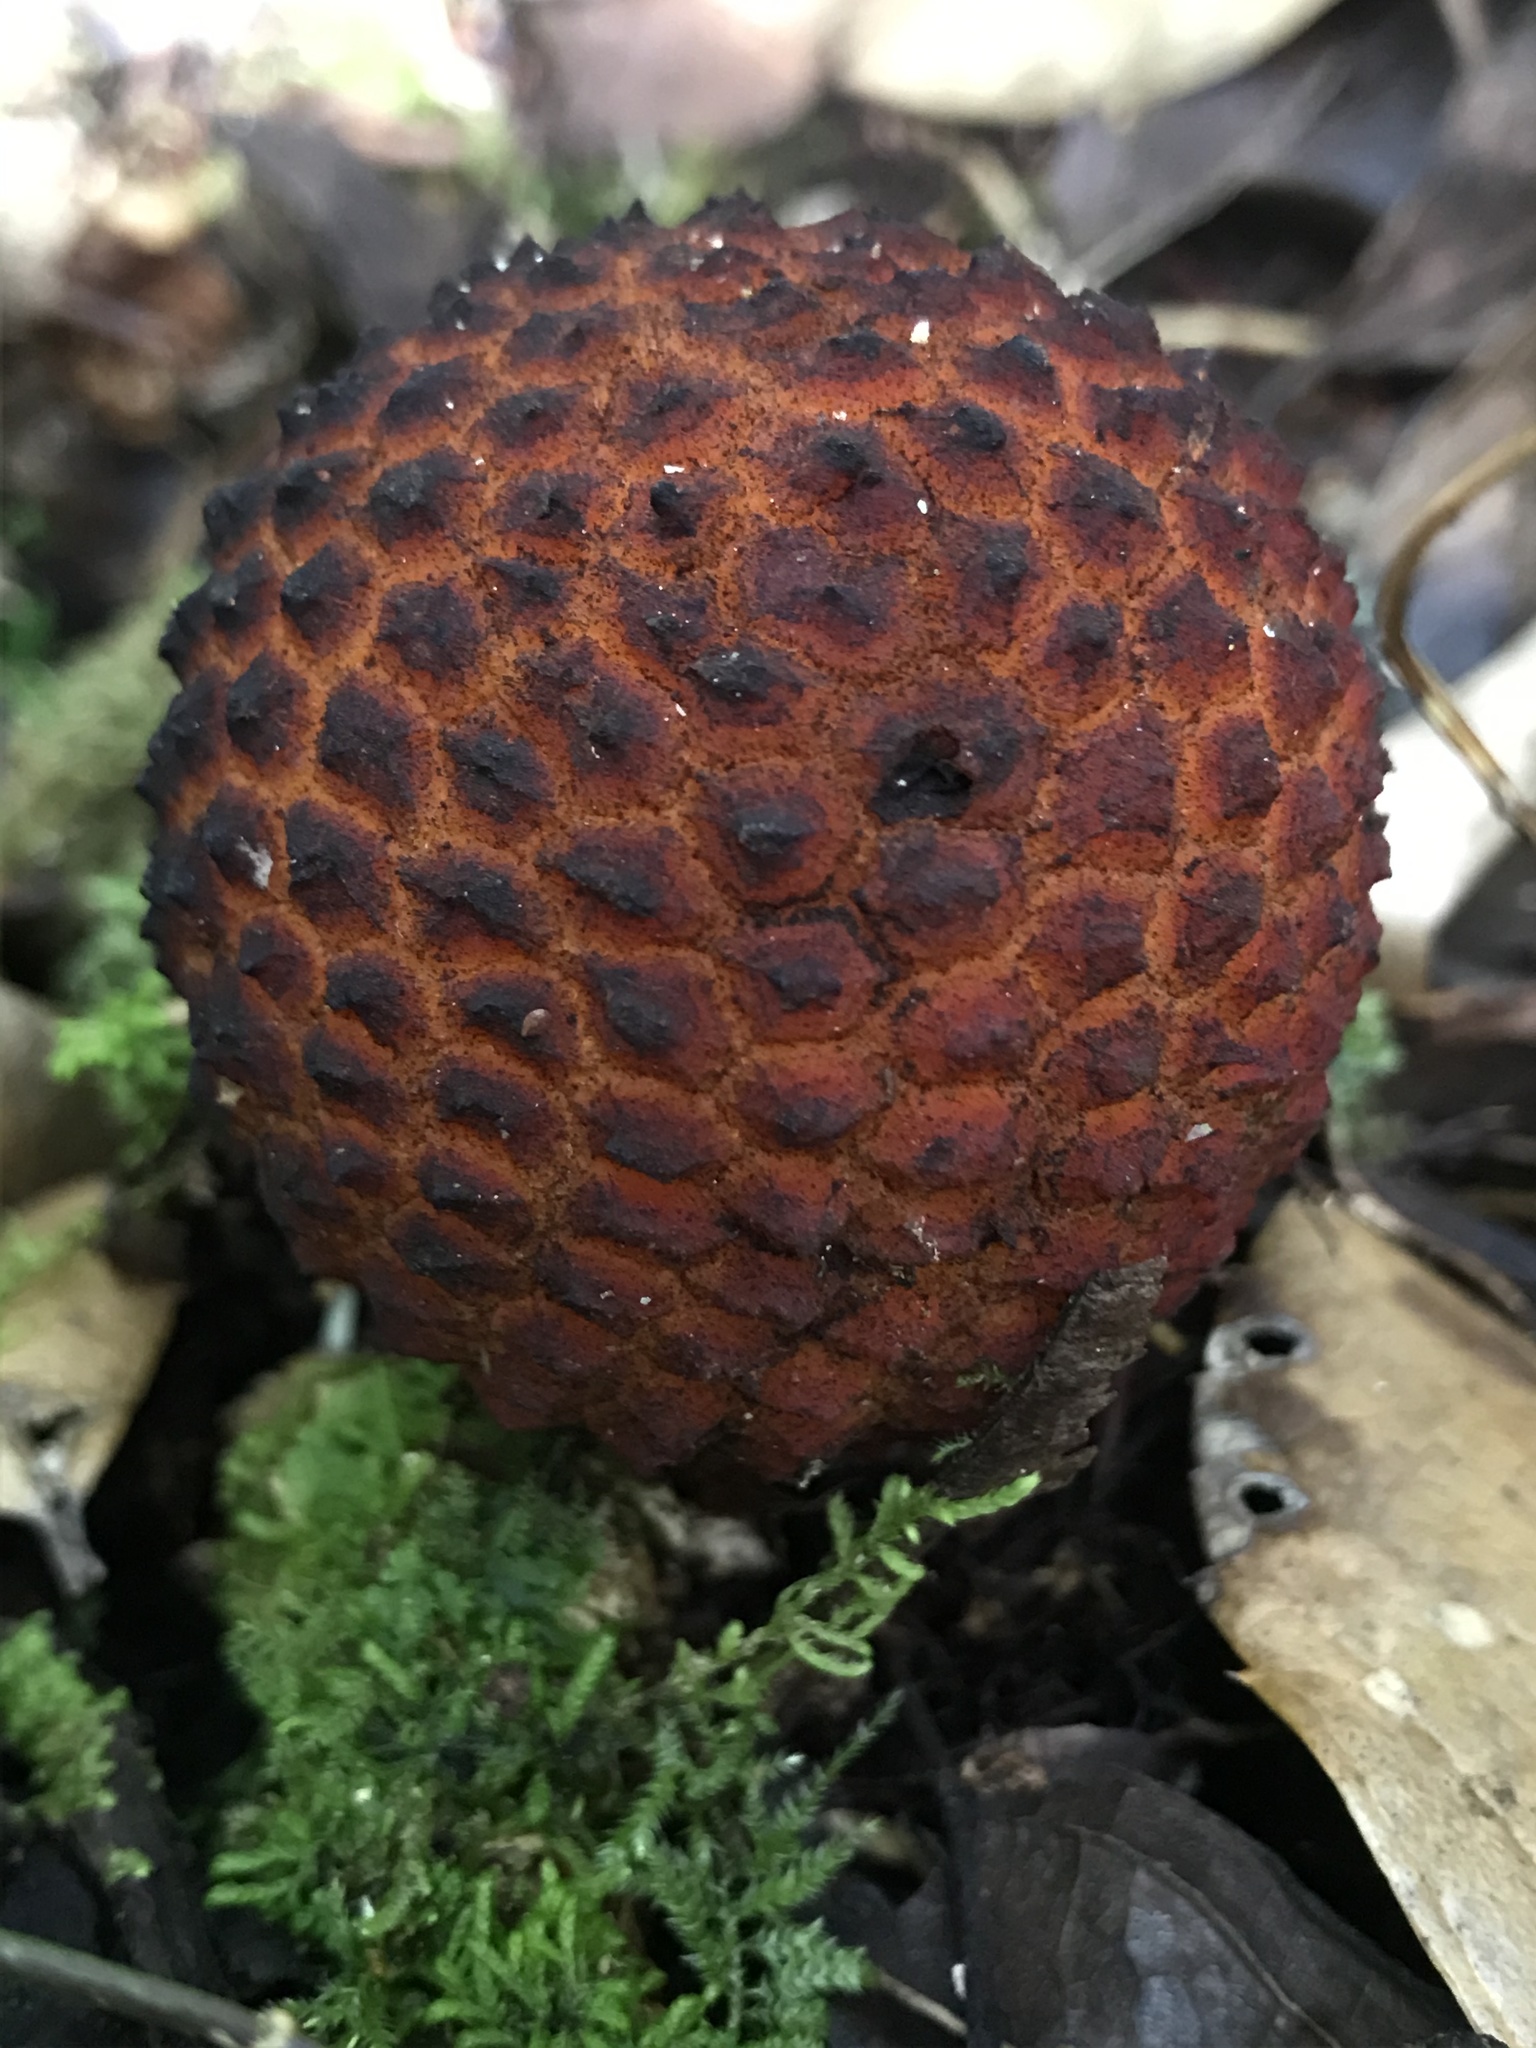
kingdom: Plantae
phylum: Tracheophyta
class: Magnoliopsida
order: Santalales
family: Balanophoraceae
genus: Corynaea
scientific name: Corynaea crassa
